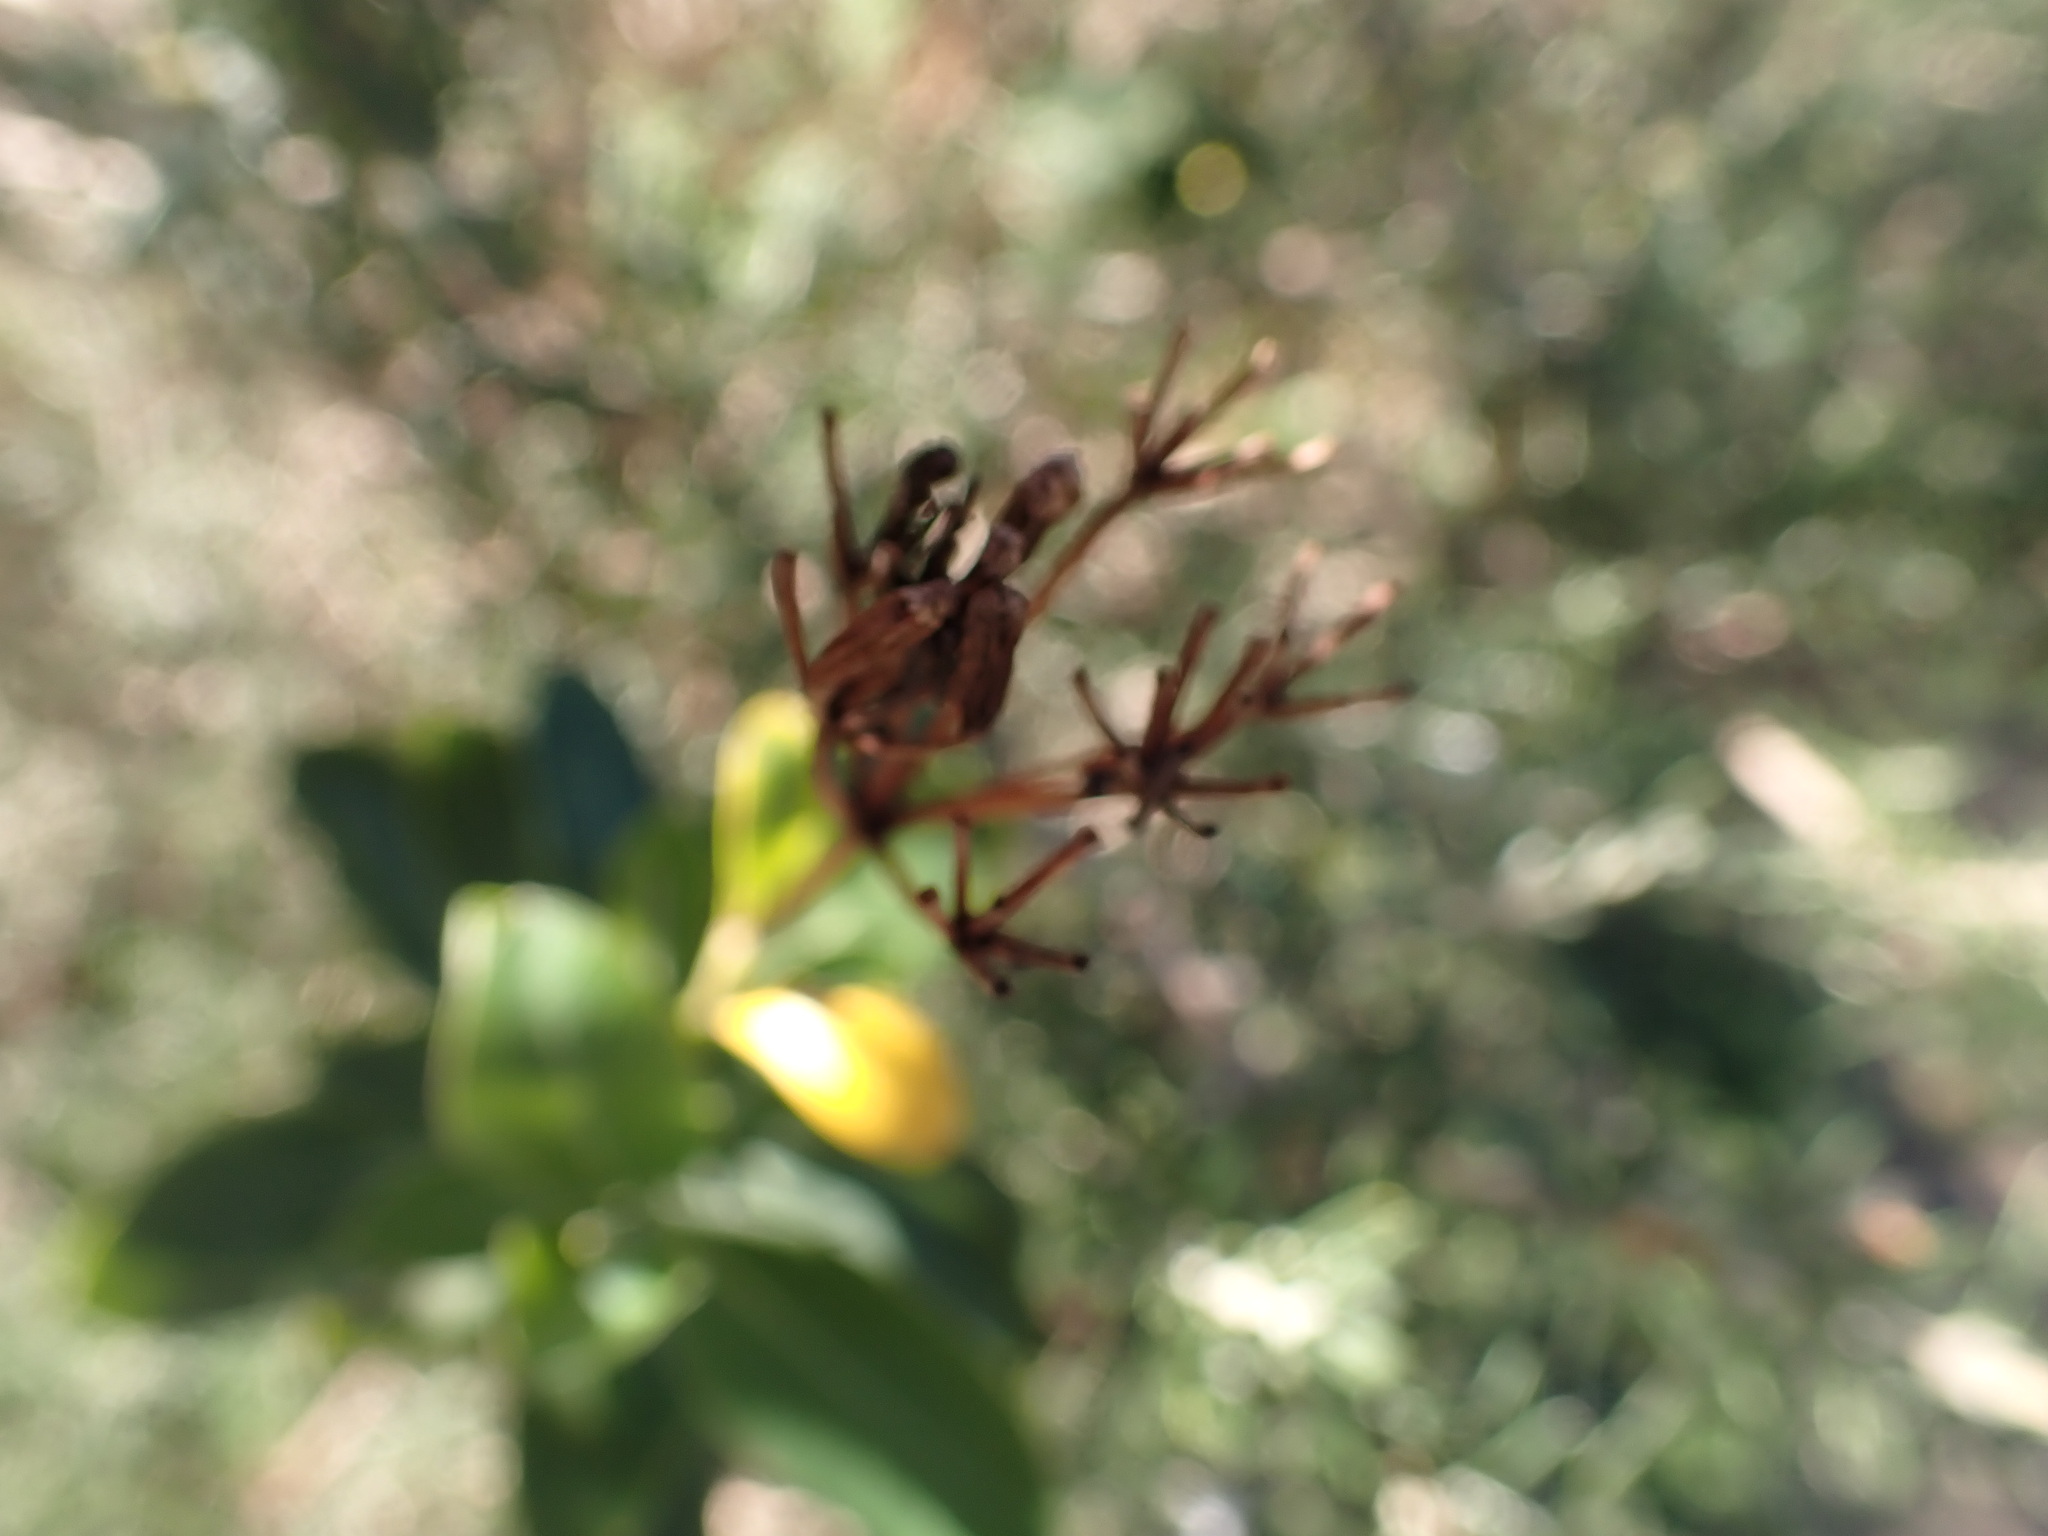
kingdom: Plantae
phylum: Tracheophyta
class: Magnoliopsida
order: Apiales
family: Apiaceae
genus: Bupleurum
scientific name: Bupleurum fruticosum
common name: Shrubby hare's-ear
